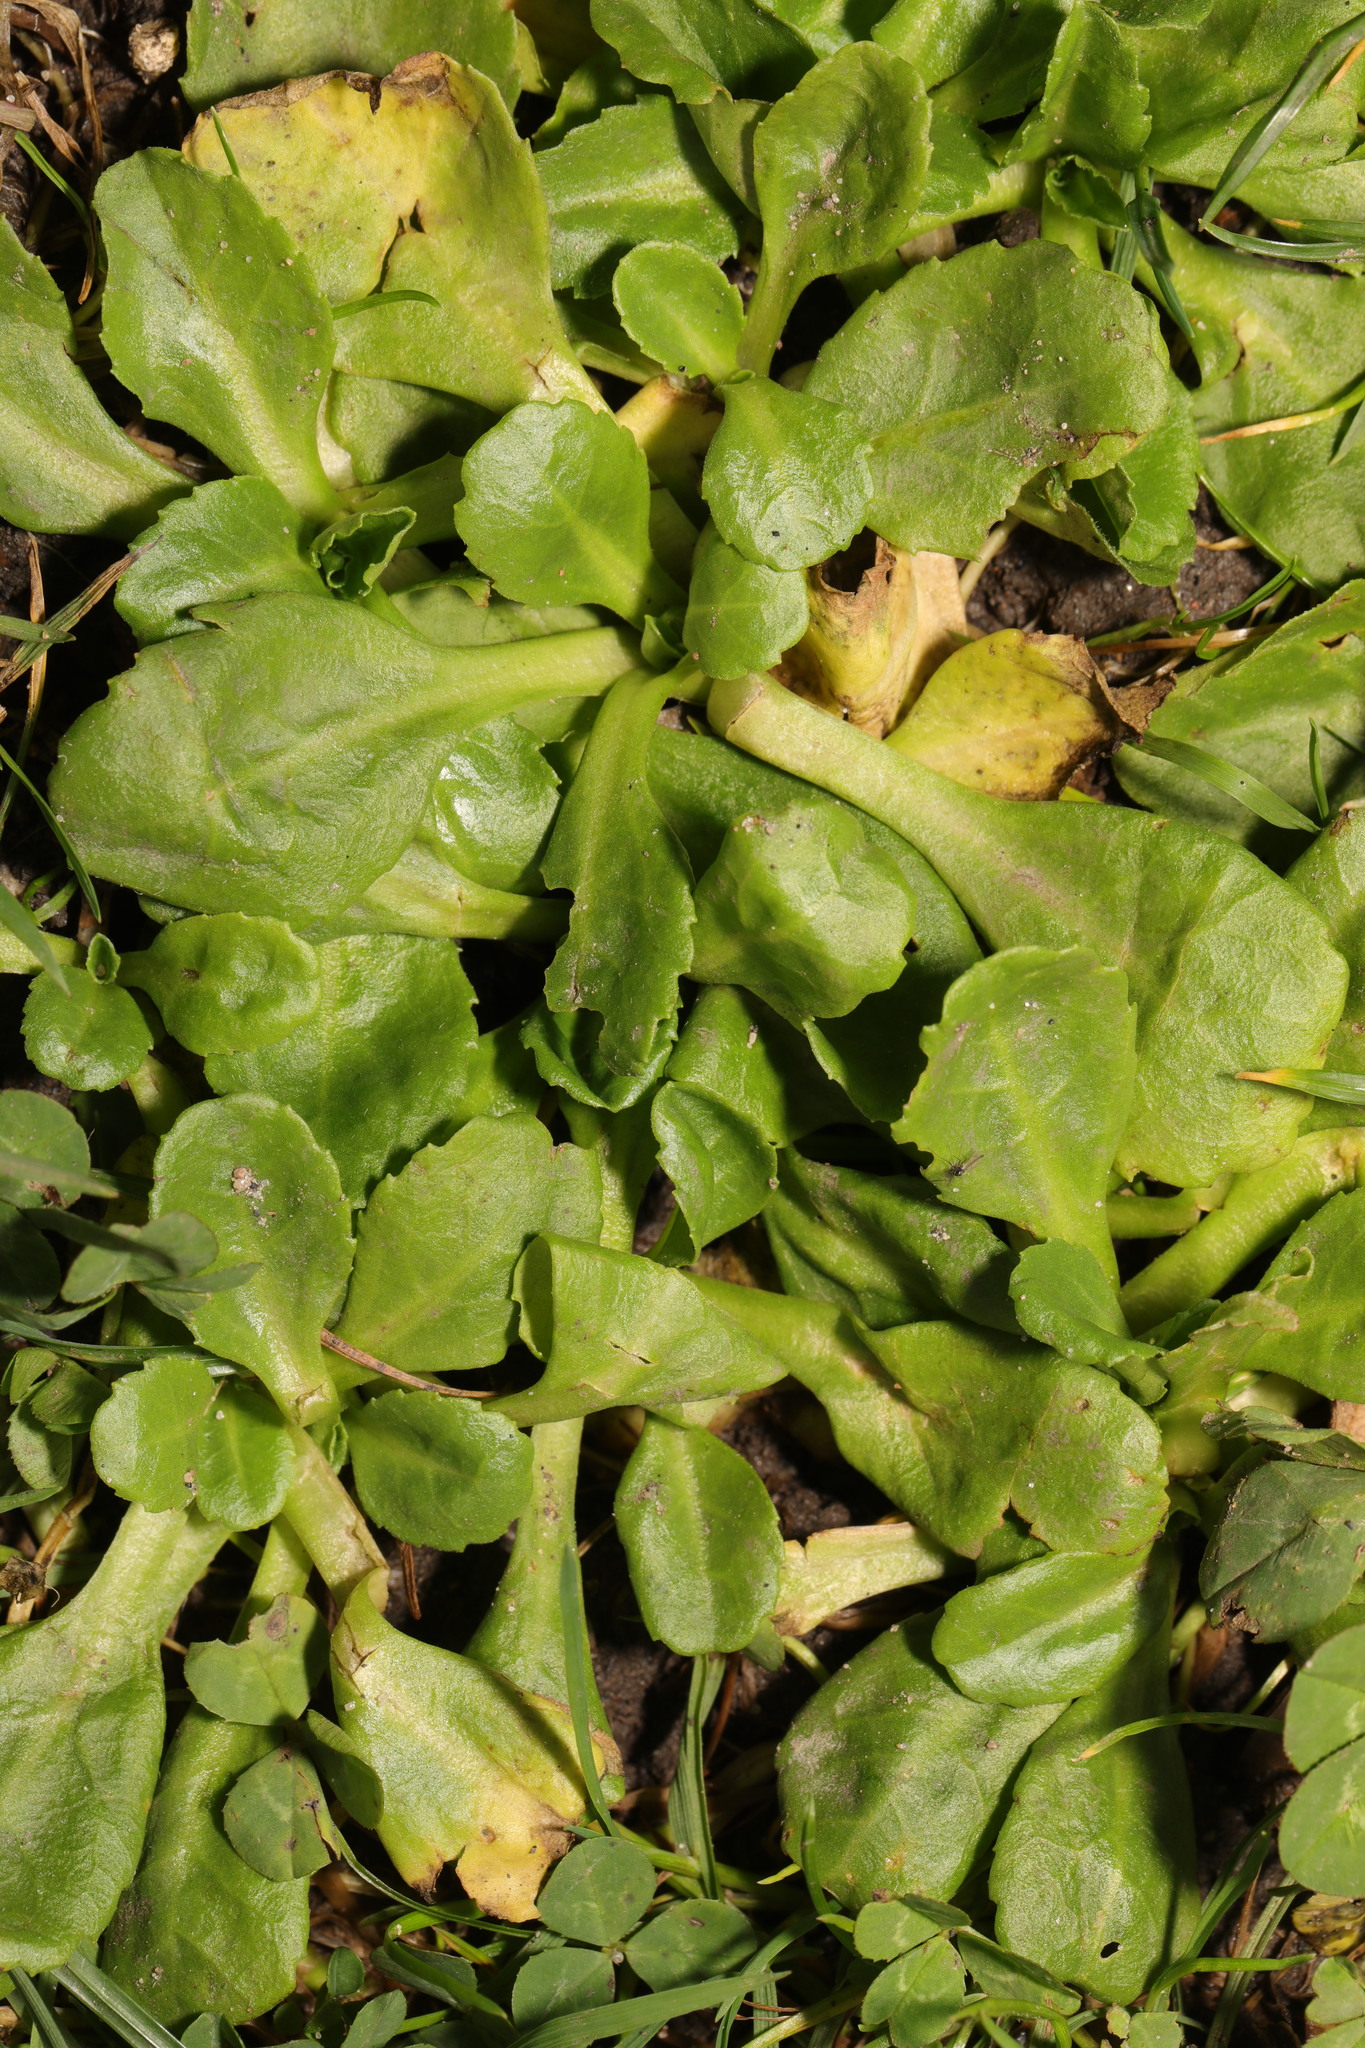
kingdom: Plantae
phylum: Tracheophyta
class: Magnoliopsida
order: Asterales
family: Asteraceae
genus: Bellis
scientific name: Bellis perennis
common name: Lawndaisy
